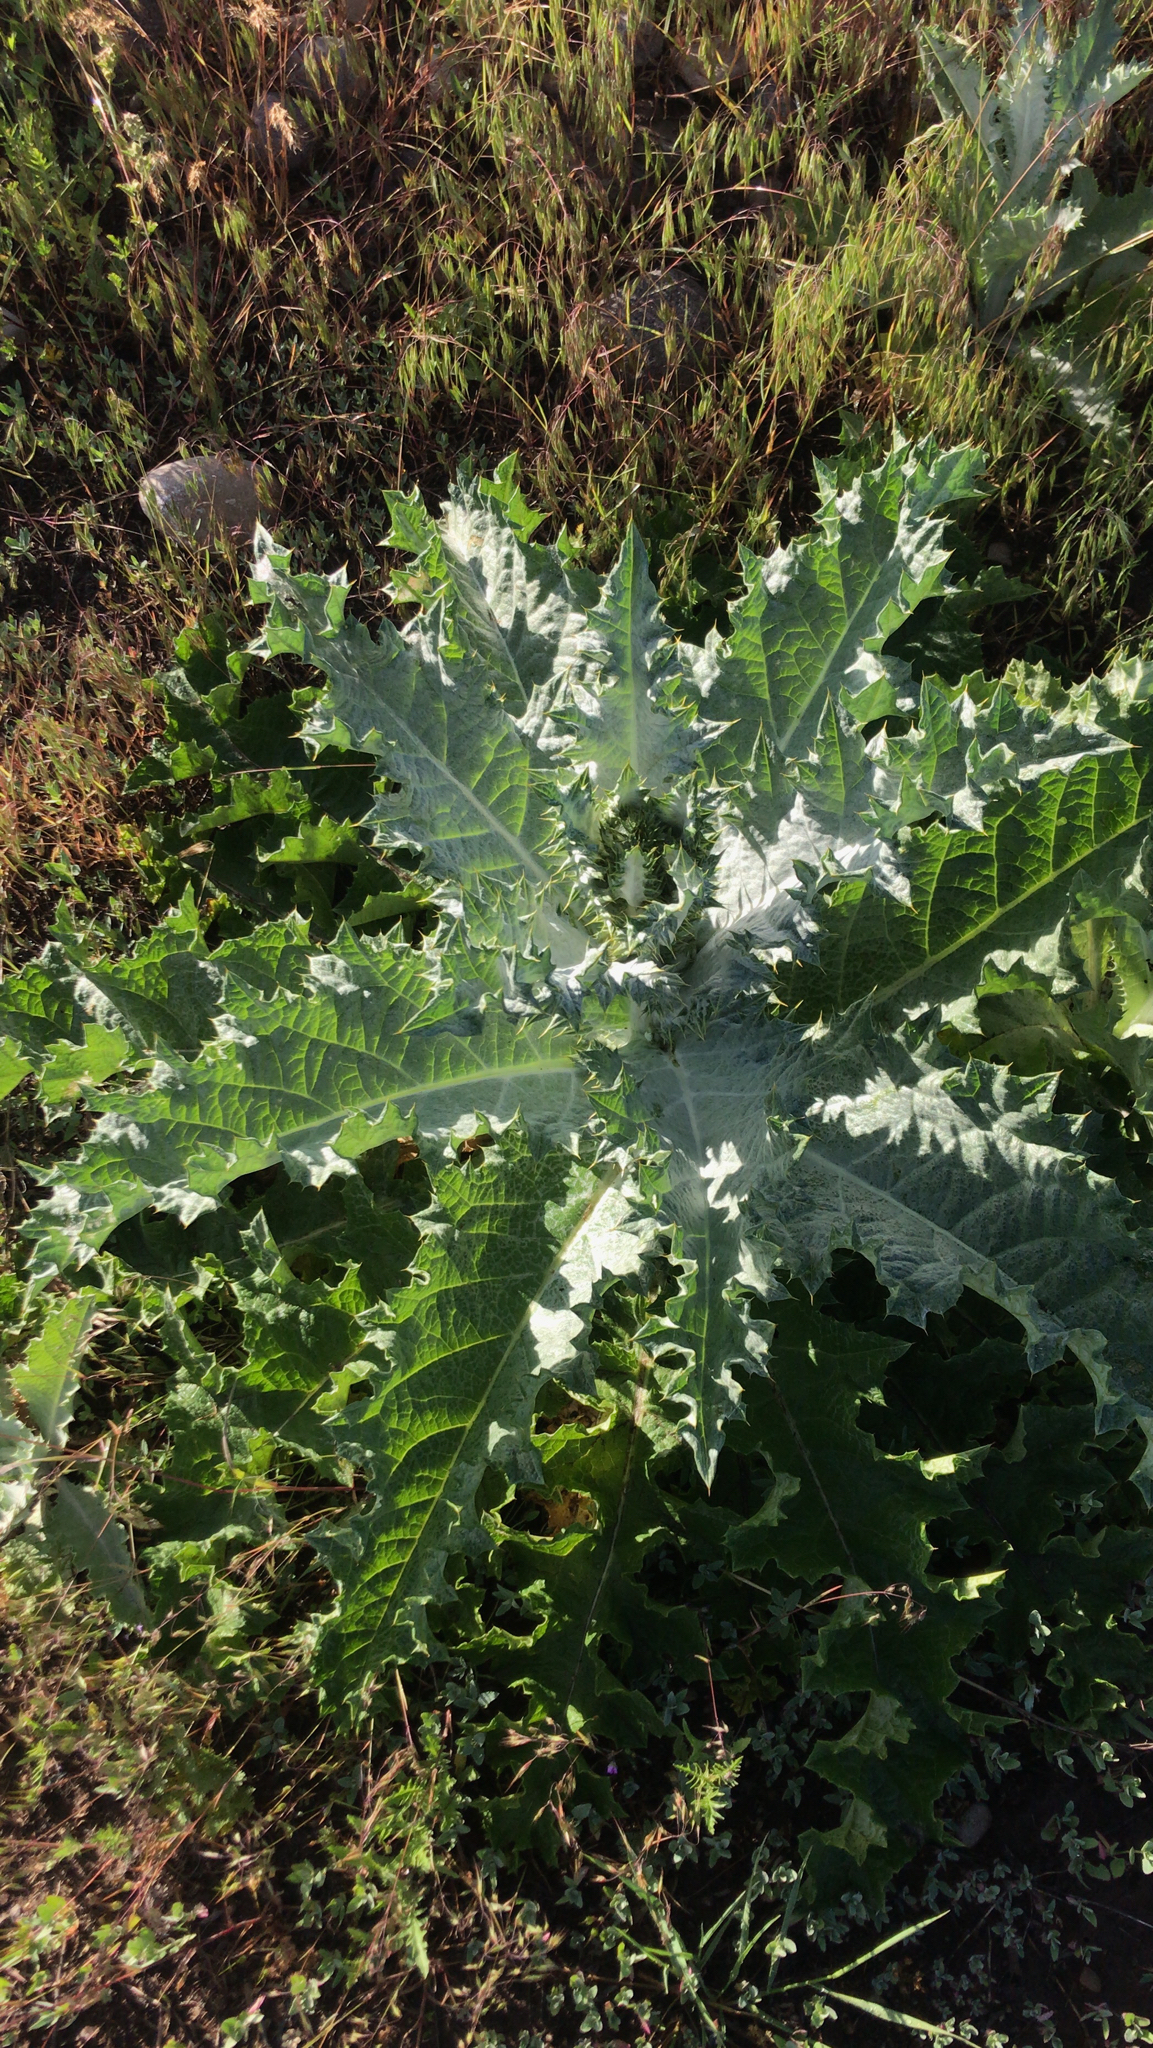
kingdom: Plantae
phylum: Tracheophyta
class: Magnoliopsida
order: Asterales
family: Asteraceae
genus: Onopordum
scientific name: Onopordum acanthium
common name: Scotch thistle
